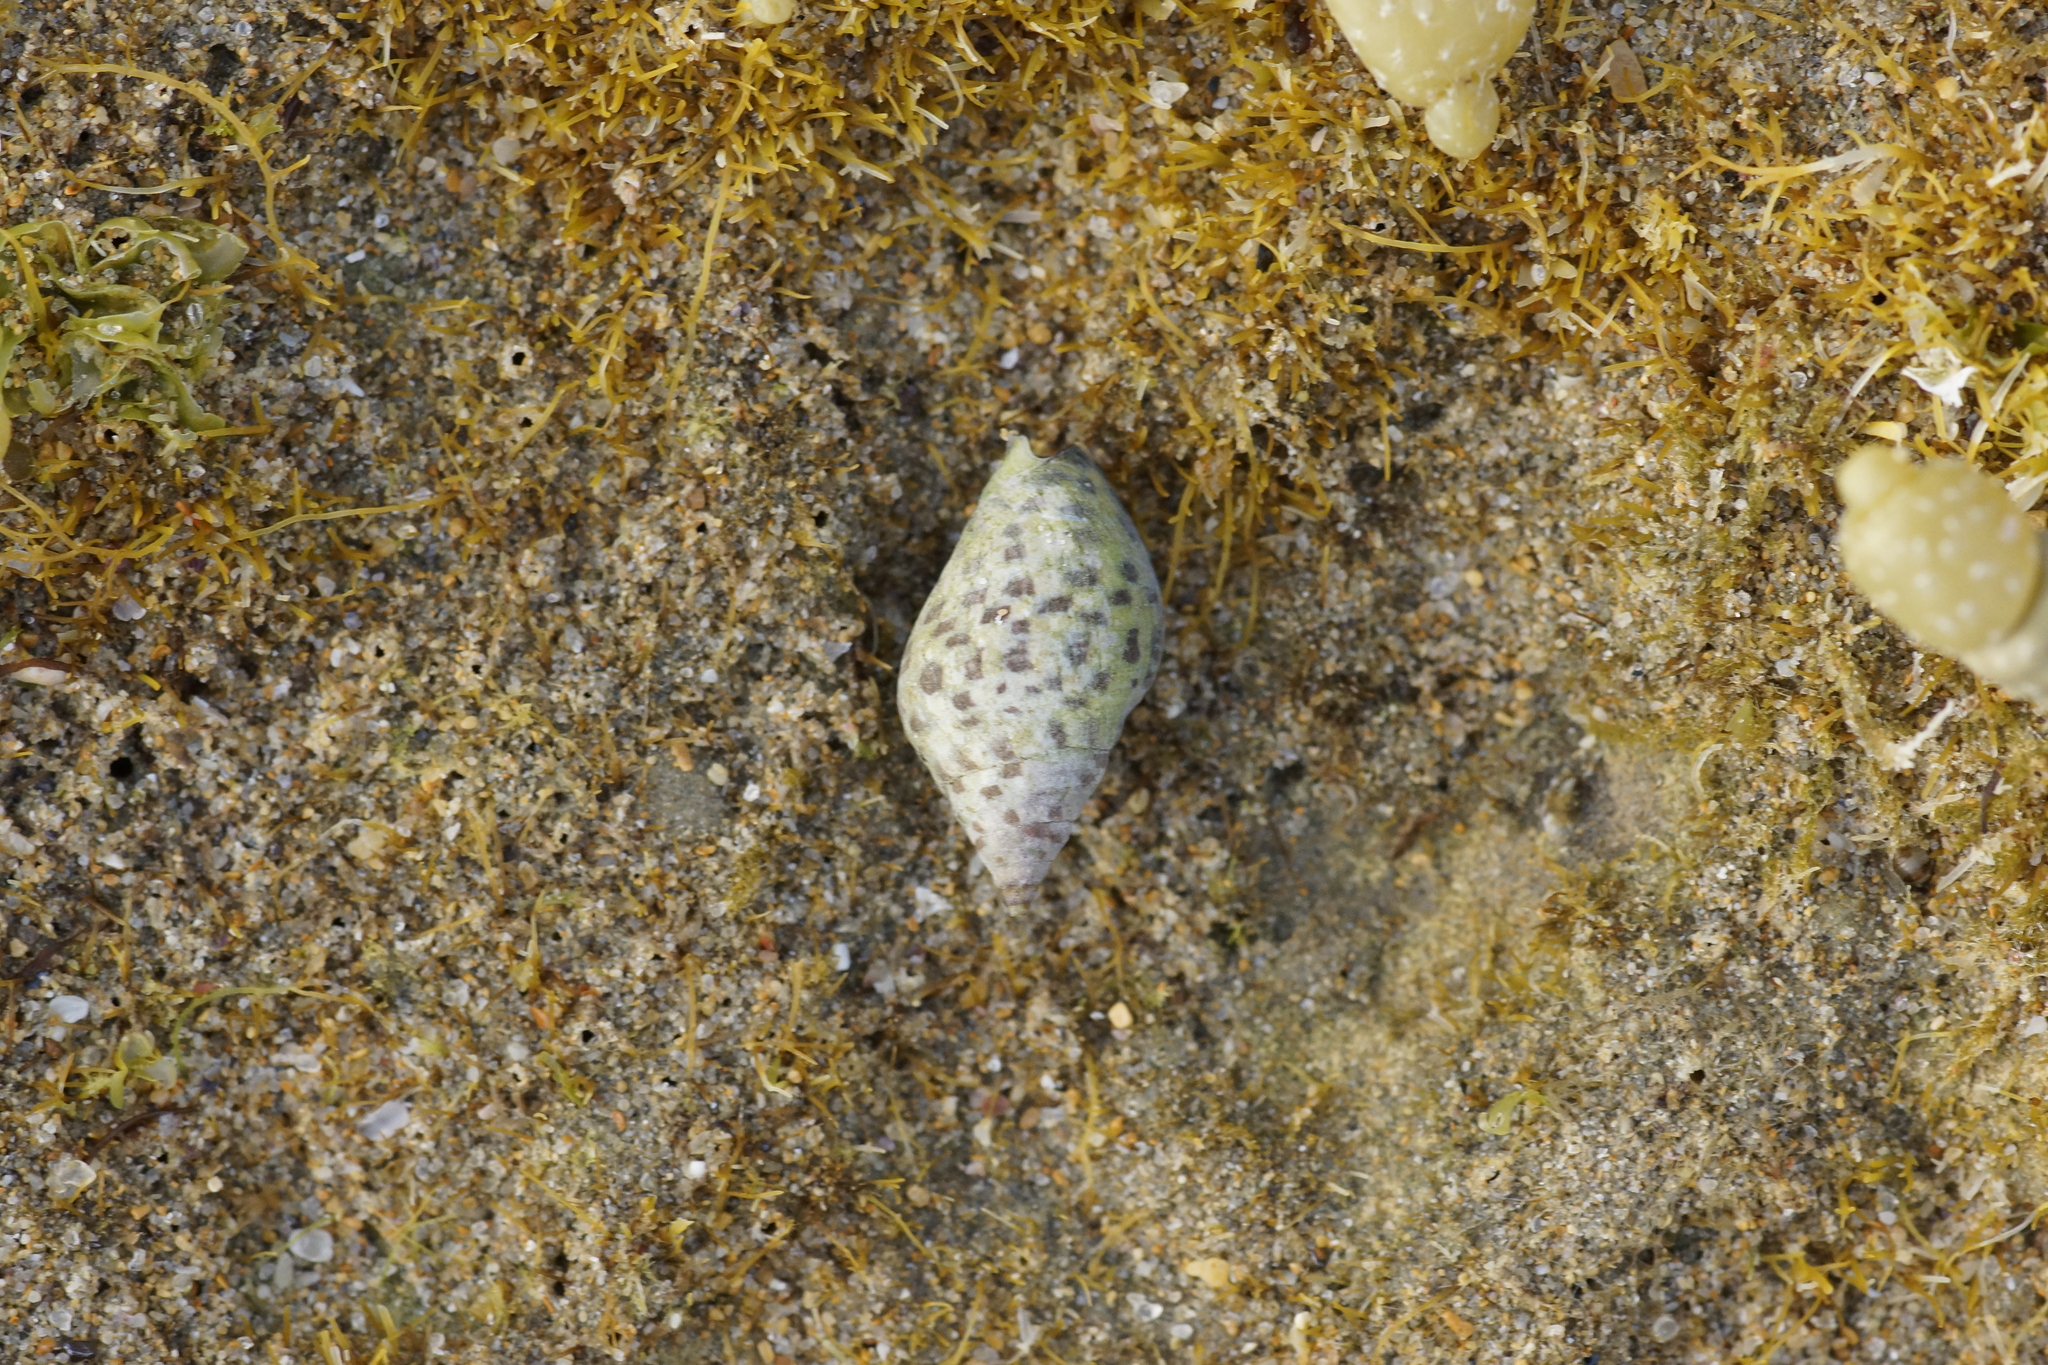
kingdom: Animalia
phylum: Mollusca
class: Gastropoda
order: Neogastropoda
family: Cominellidae
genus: Cominella
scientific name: Cominella lineolata
